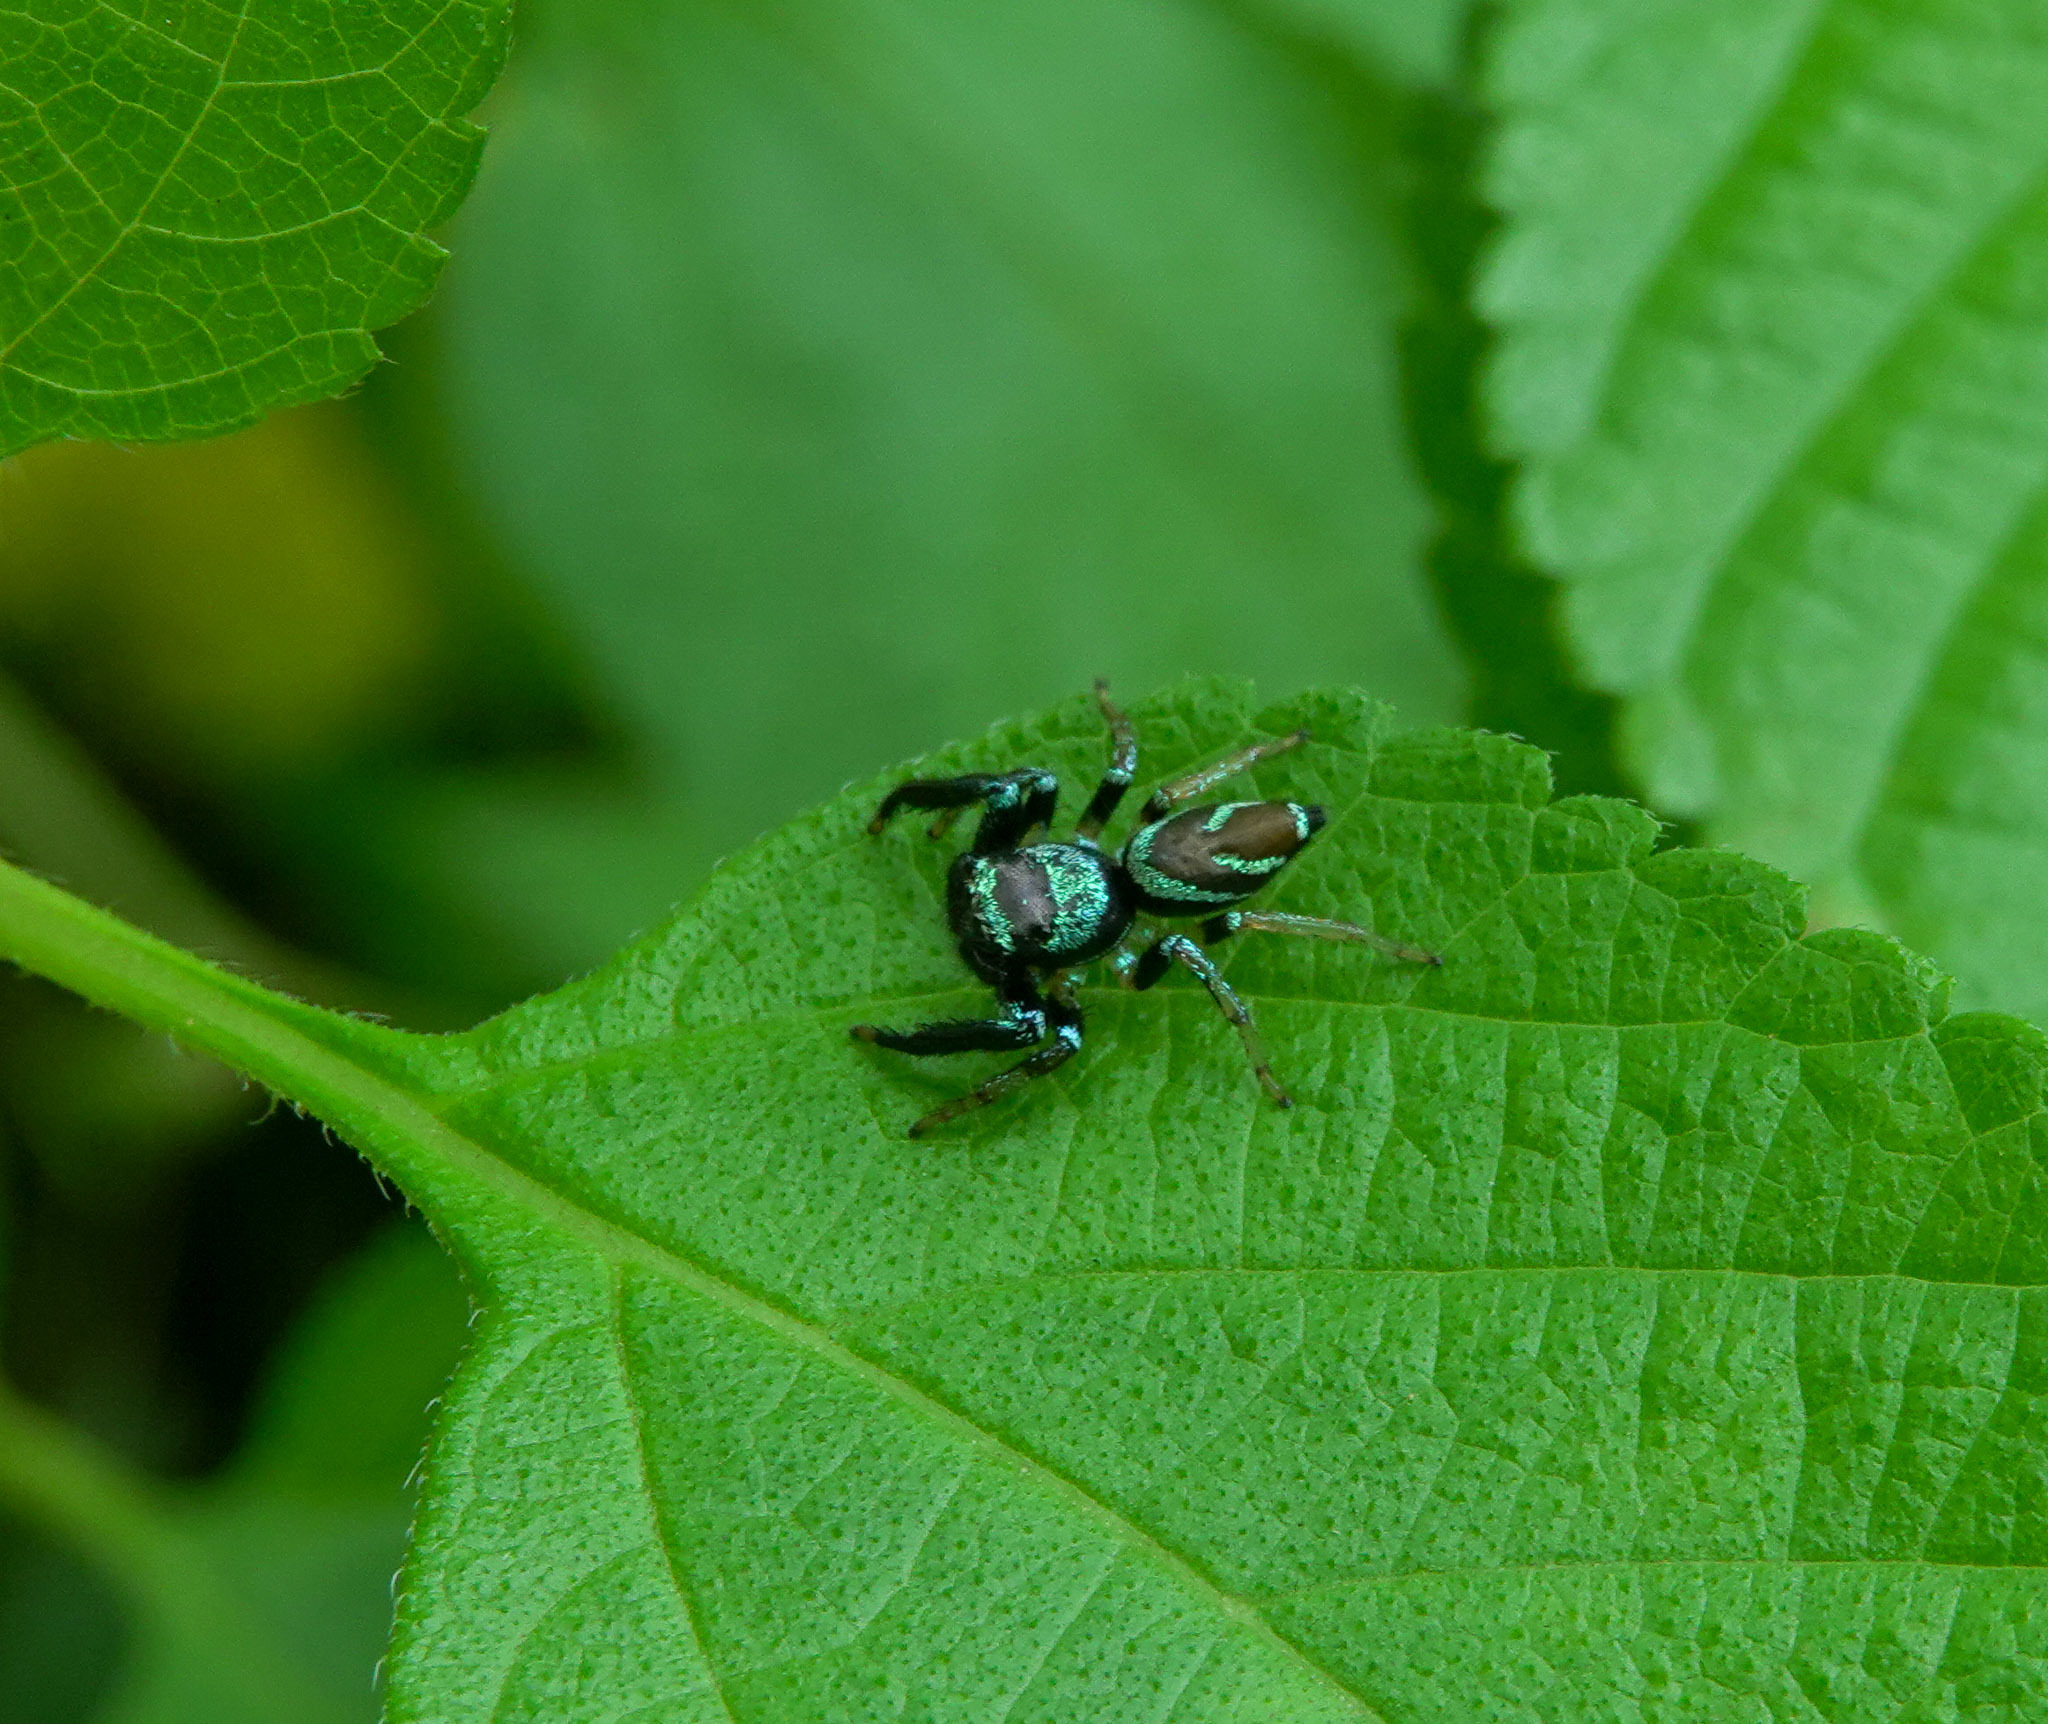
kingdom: Animalia
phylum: Arthropoda
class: Arachnida
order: Araneae
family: Salticidae
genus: Thiania
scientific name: Thiania bhamoensis
